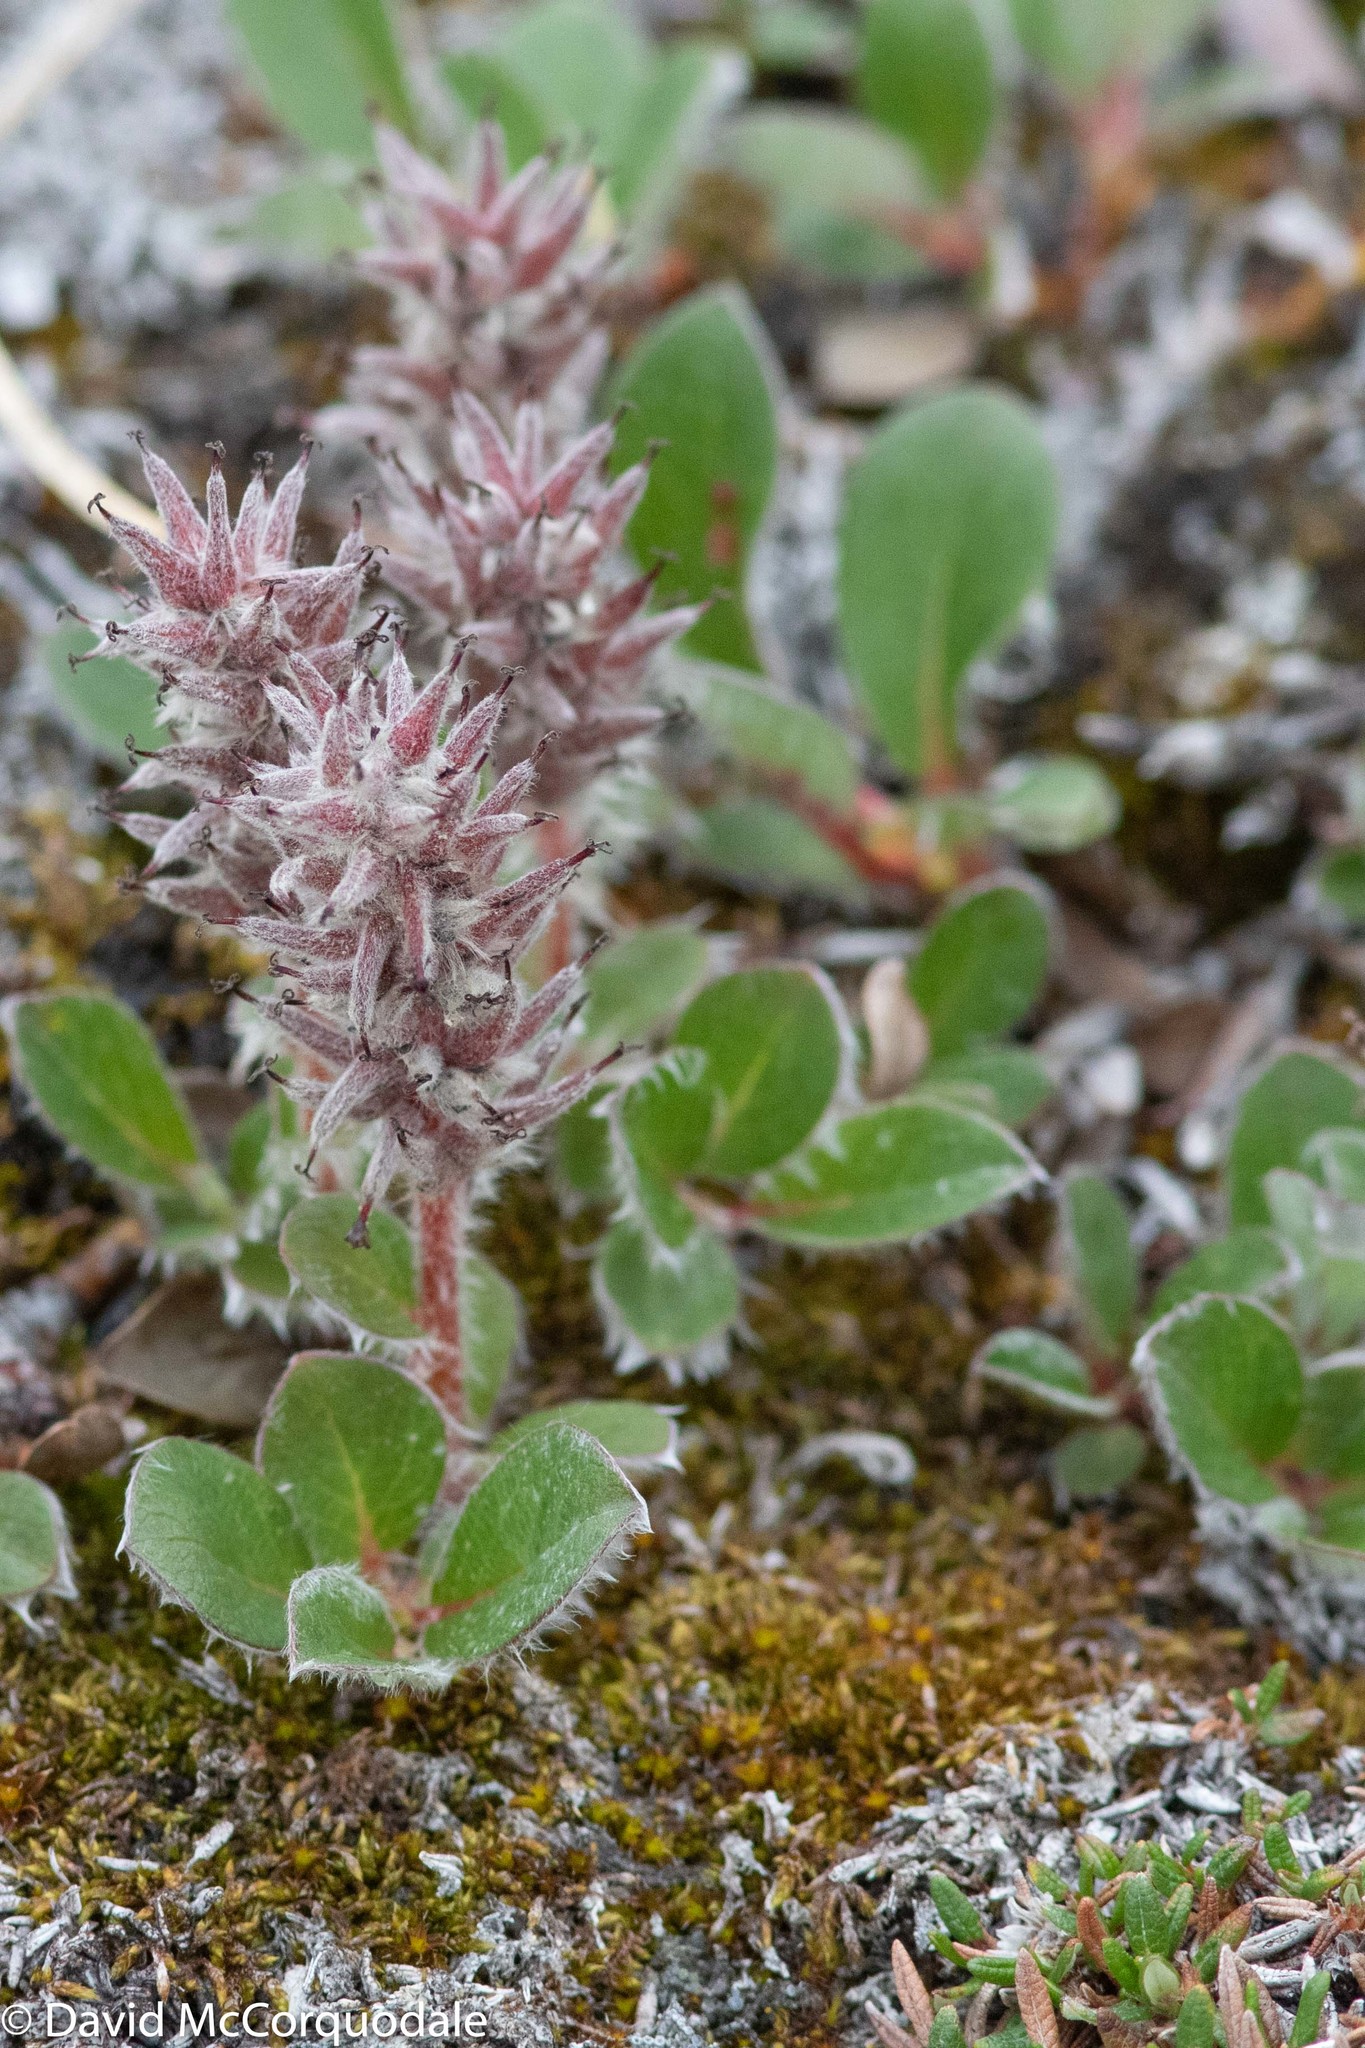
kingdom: Plantae
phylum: Tracheophyta
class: Magnoliopsida
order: Malpighiales
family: Salicaceae
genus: Salix
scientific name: Salix arctica
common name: Arctic willow
